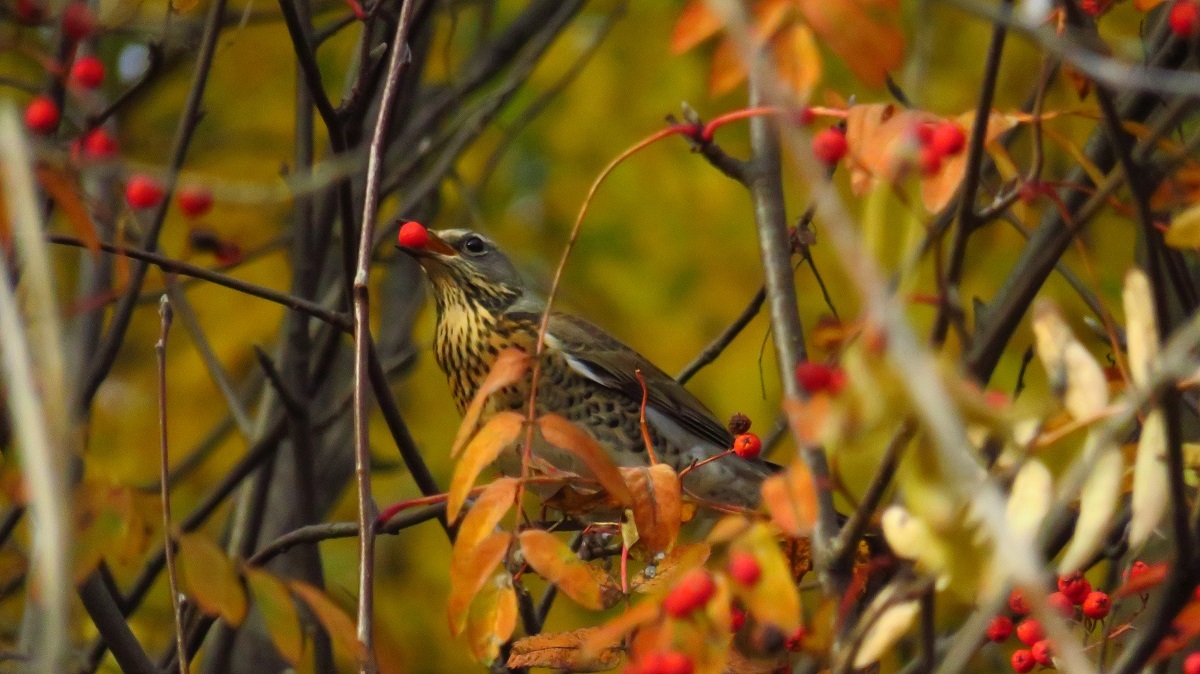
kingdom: Animalia
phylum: Chordata
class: Aves
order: Passeriformes
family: Turdidae
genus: Turdus
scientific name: Turdus pilaris
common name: Fieldfare
